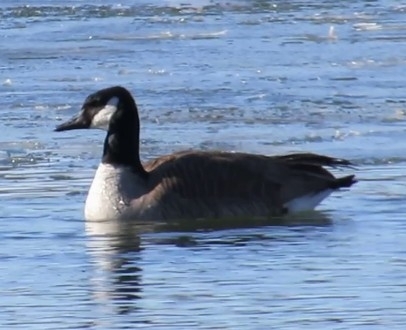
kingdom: Animalia
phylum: Chordata
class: Aves
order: Anseriformes
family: Anatidae
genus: Branta
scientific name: Branta canadensis
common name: Canada goose
